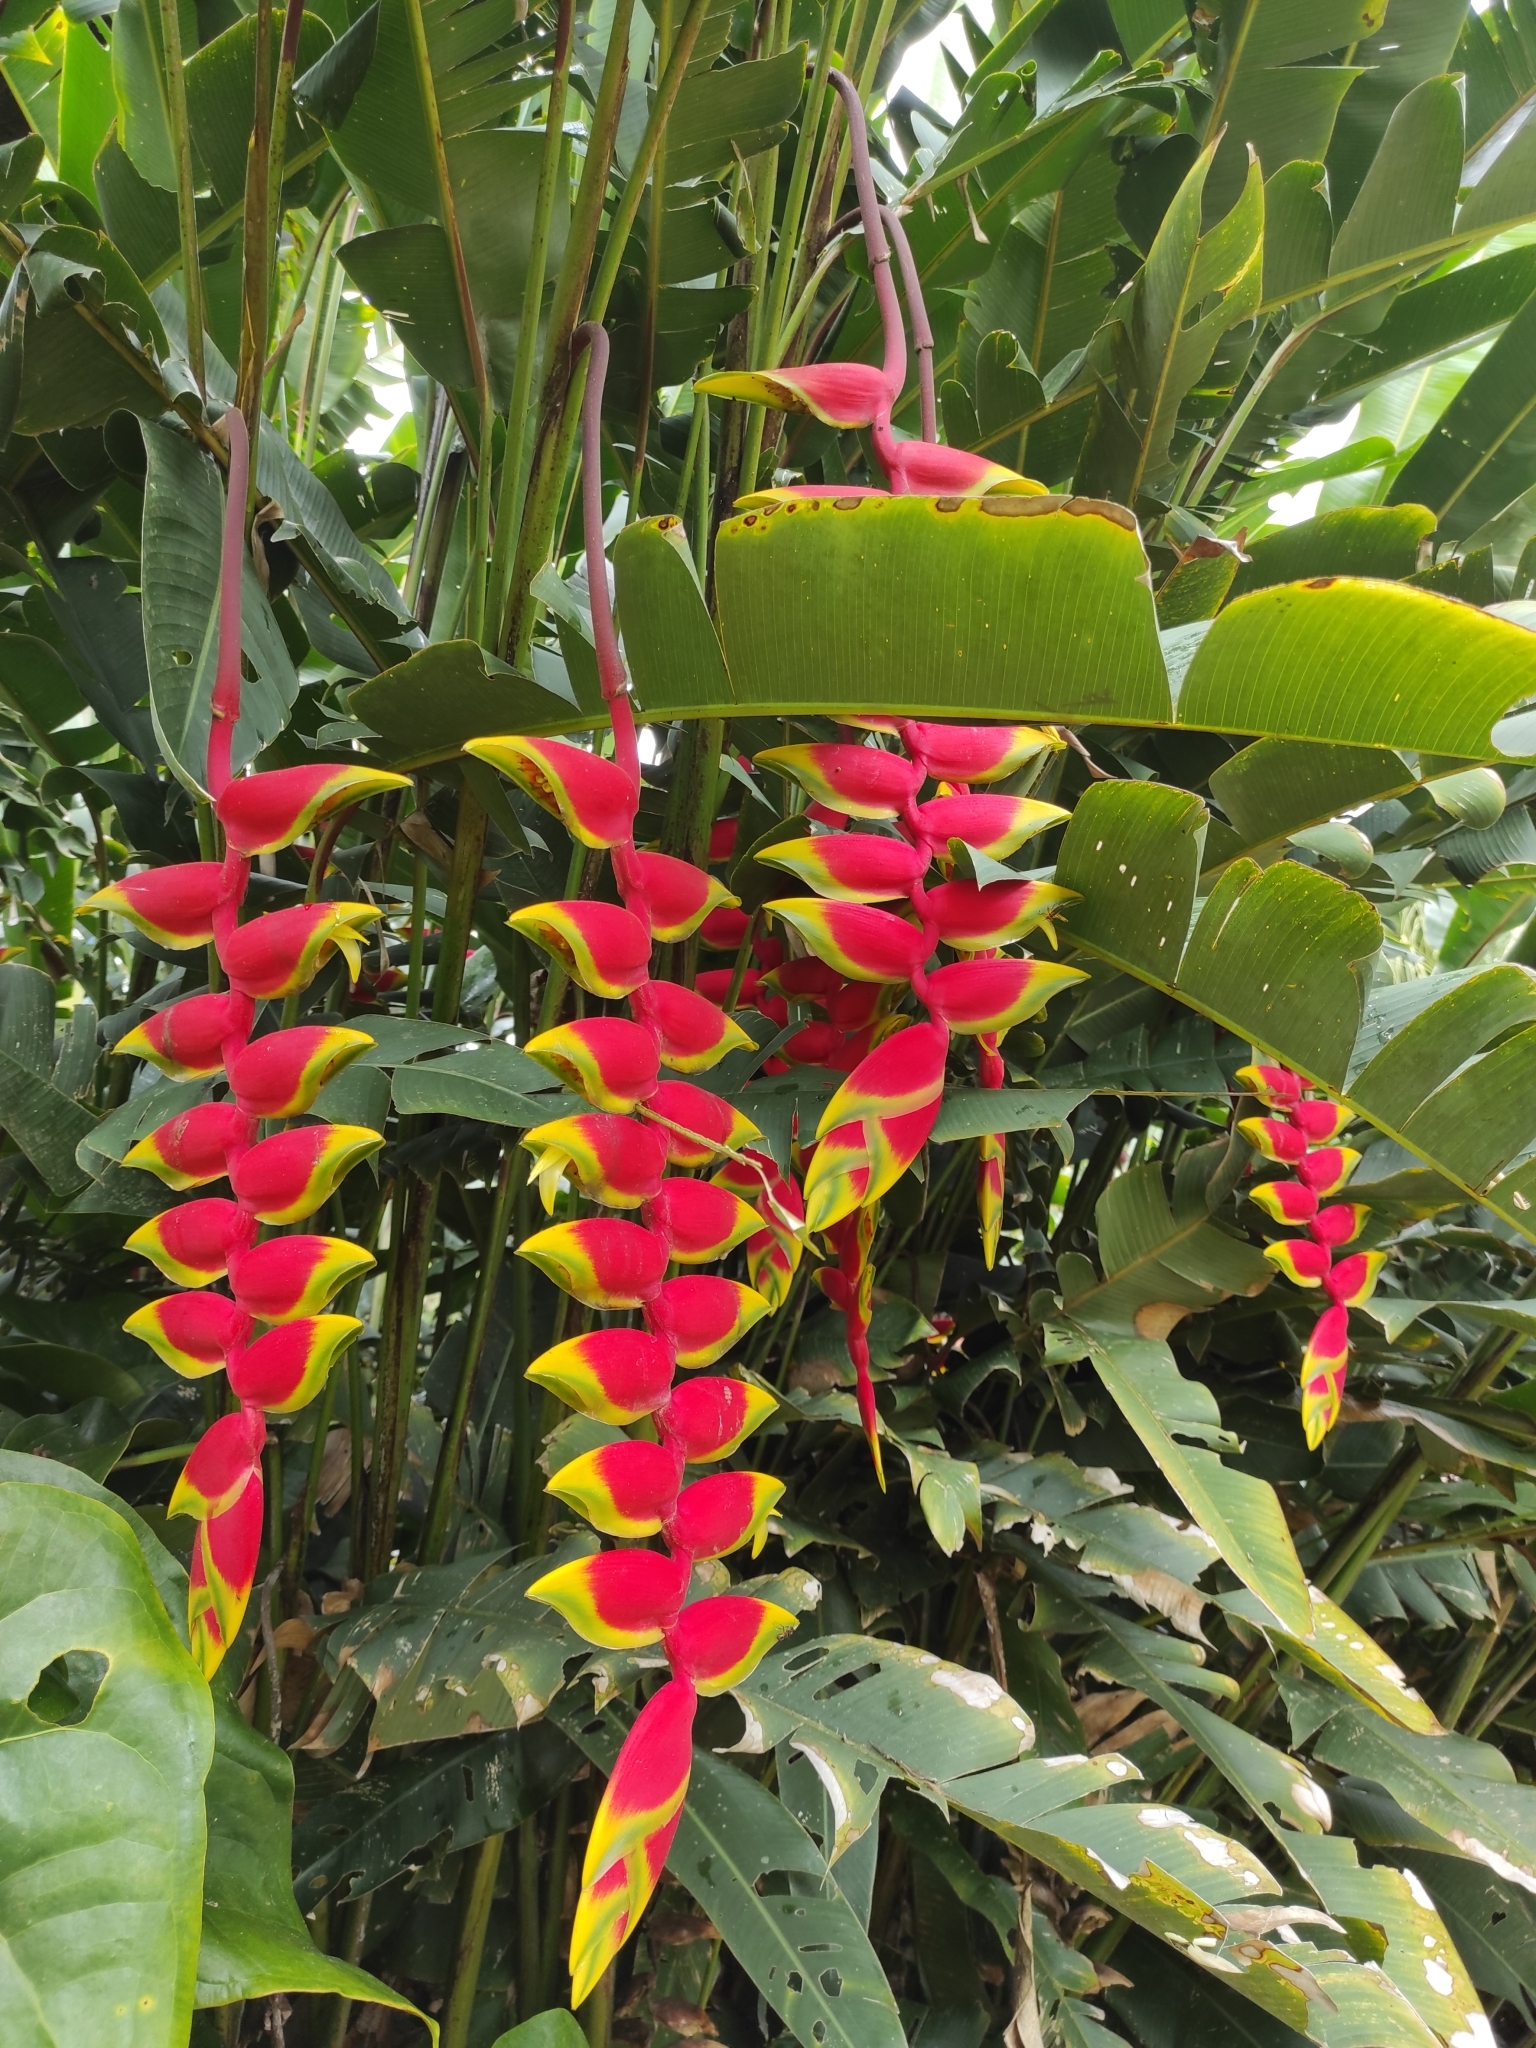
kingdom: Plantae
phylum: Tracheophyta
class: Liliopsida
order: Zingiberales
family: Heliconiaceae
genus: Heliconia
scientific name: Heliconia rostrata
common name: False bird of paradise
